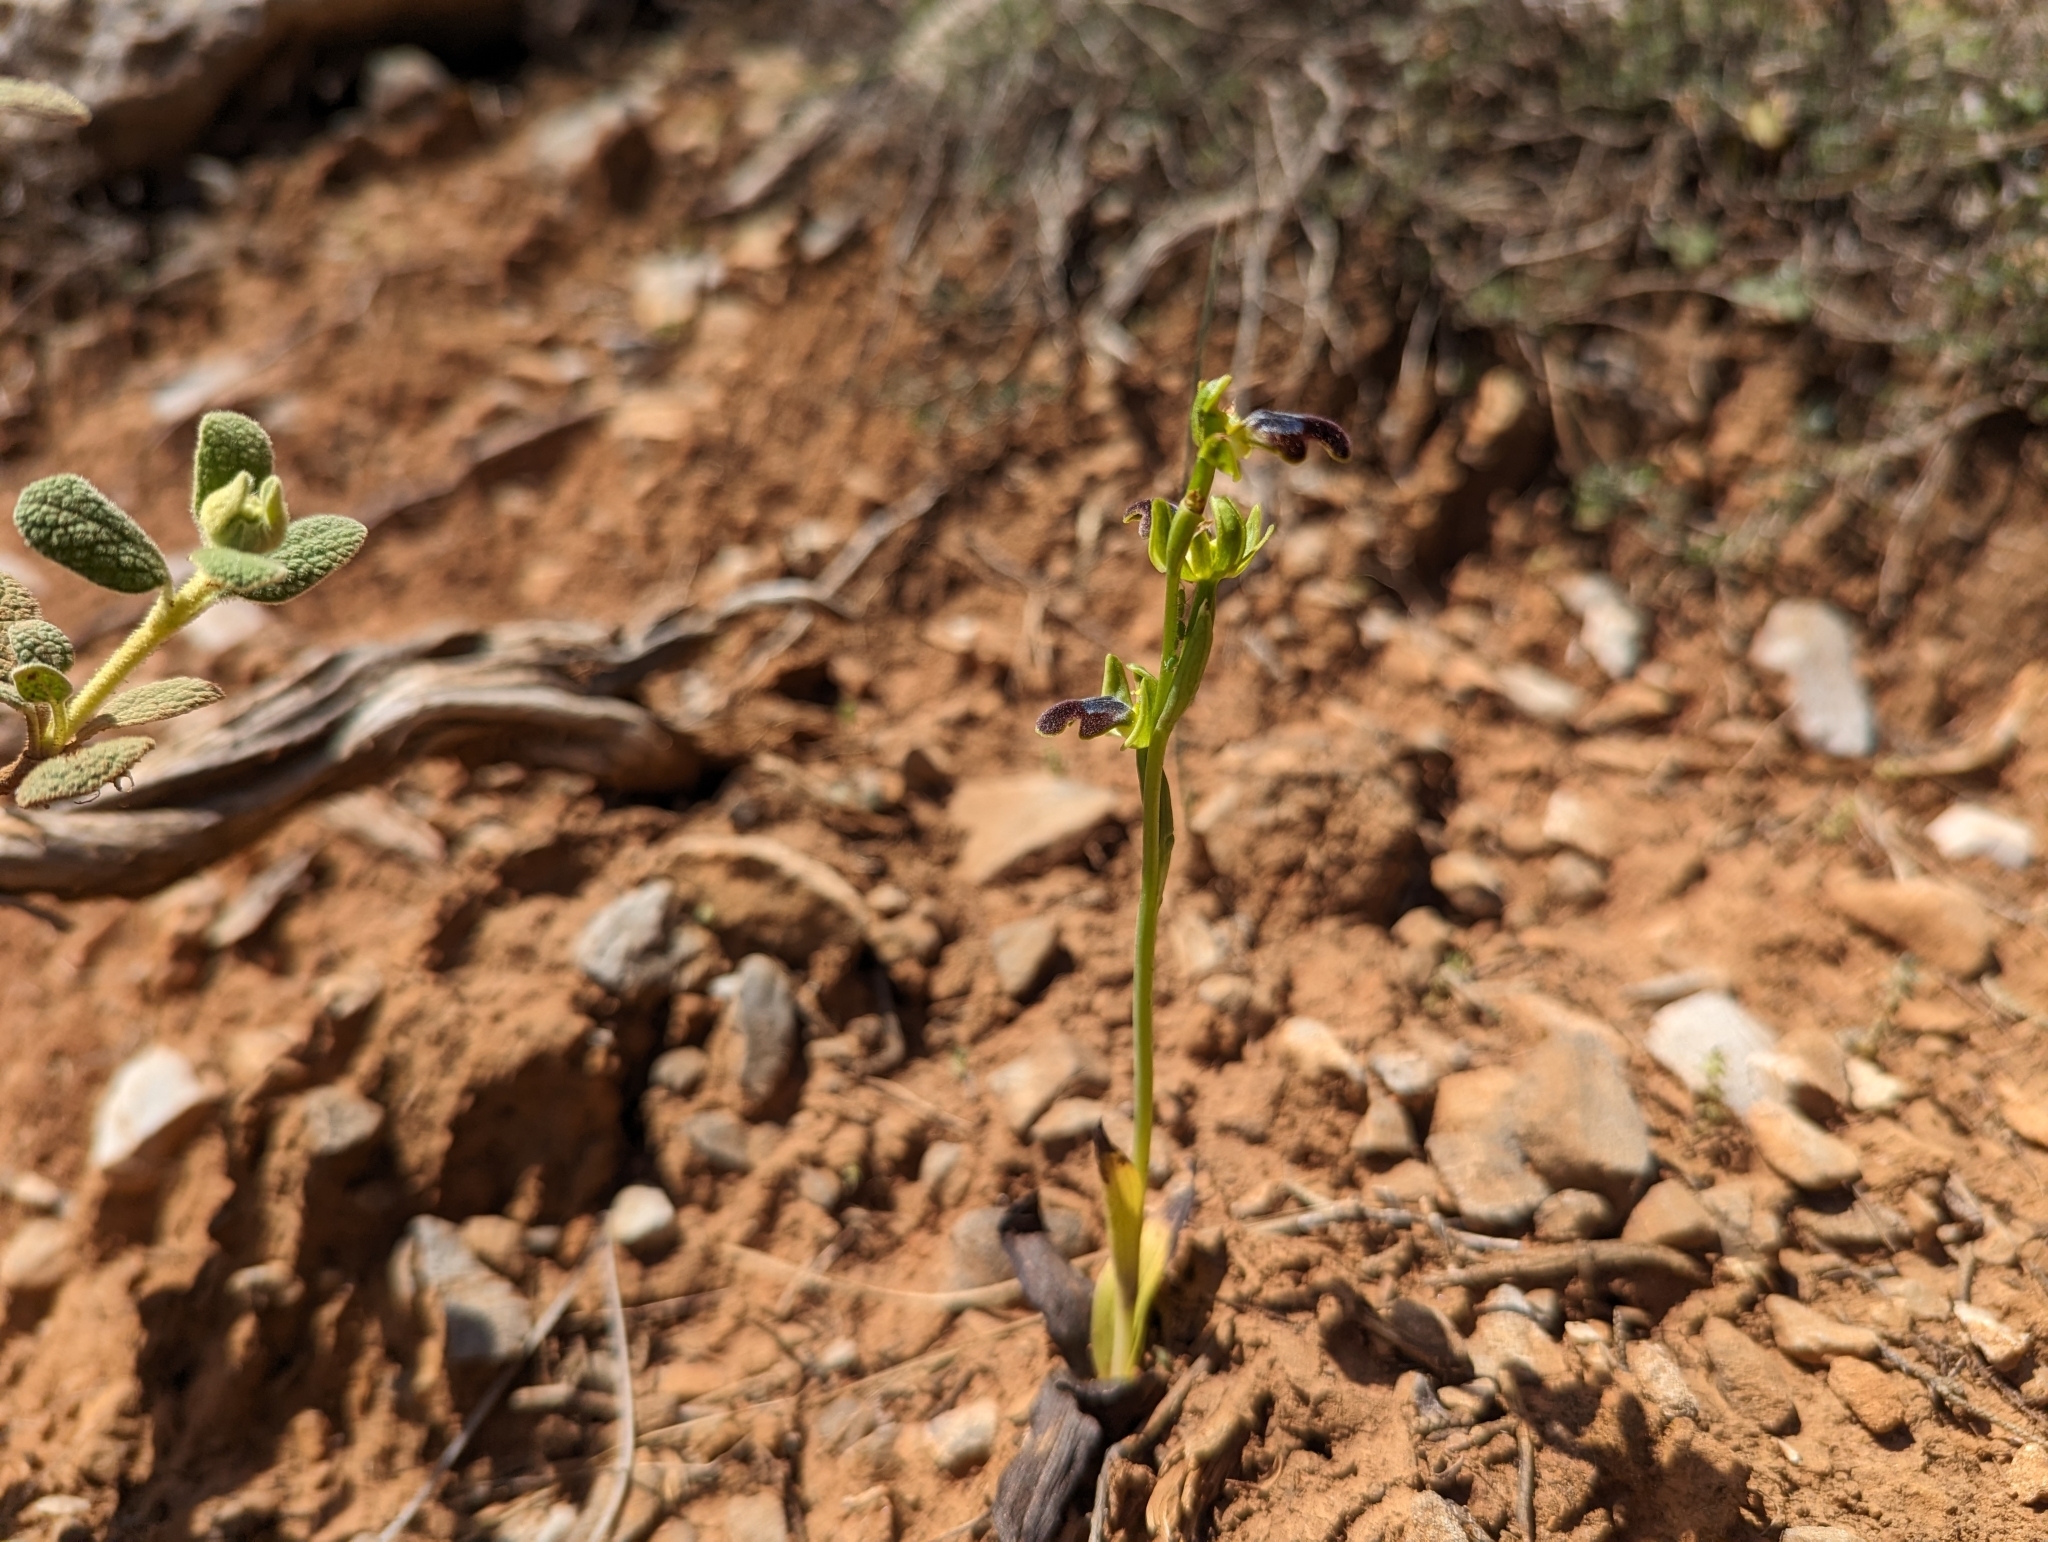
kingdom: Plantae
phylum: Tracheophyta
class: Liliopsida
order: Asparagales
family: Orchidaceae
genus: Ophrys
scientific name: Ophrys fusca
